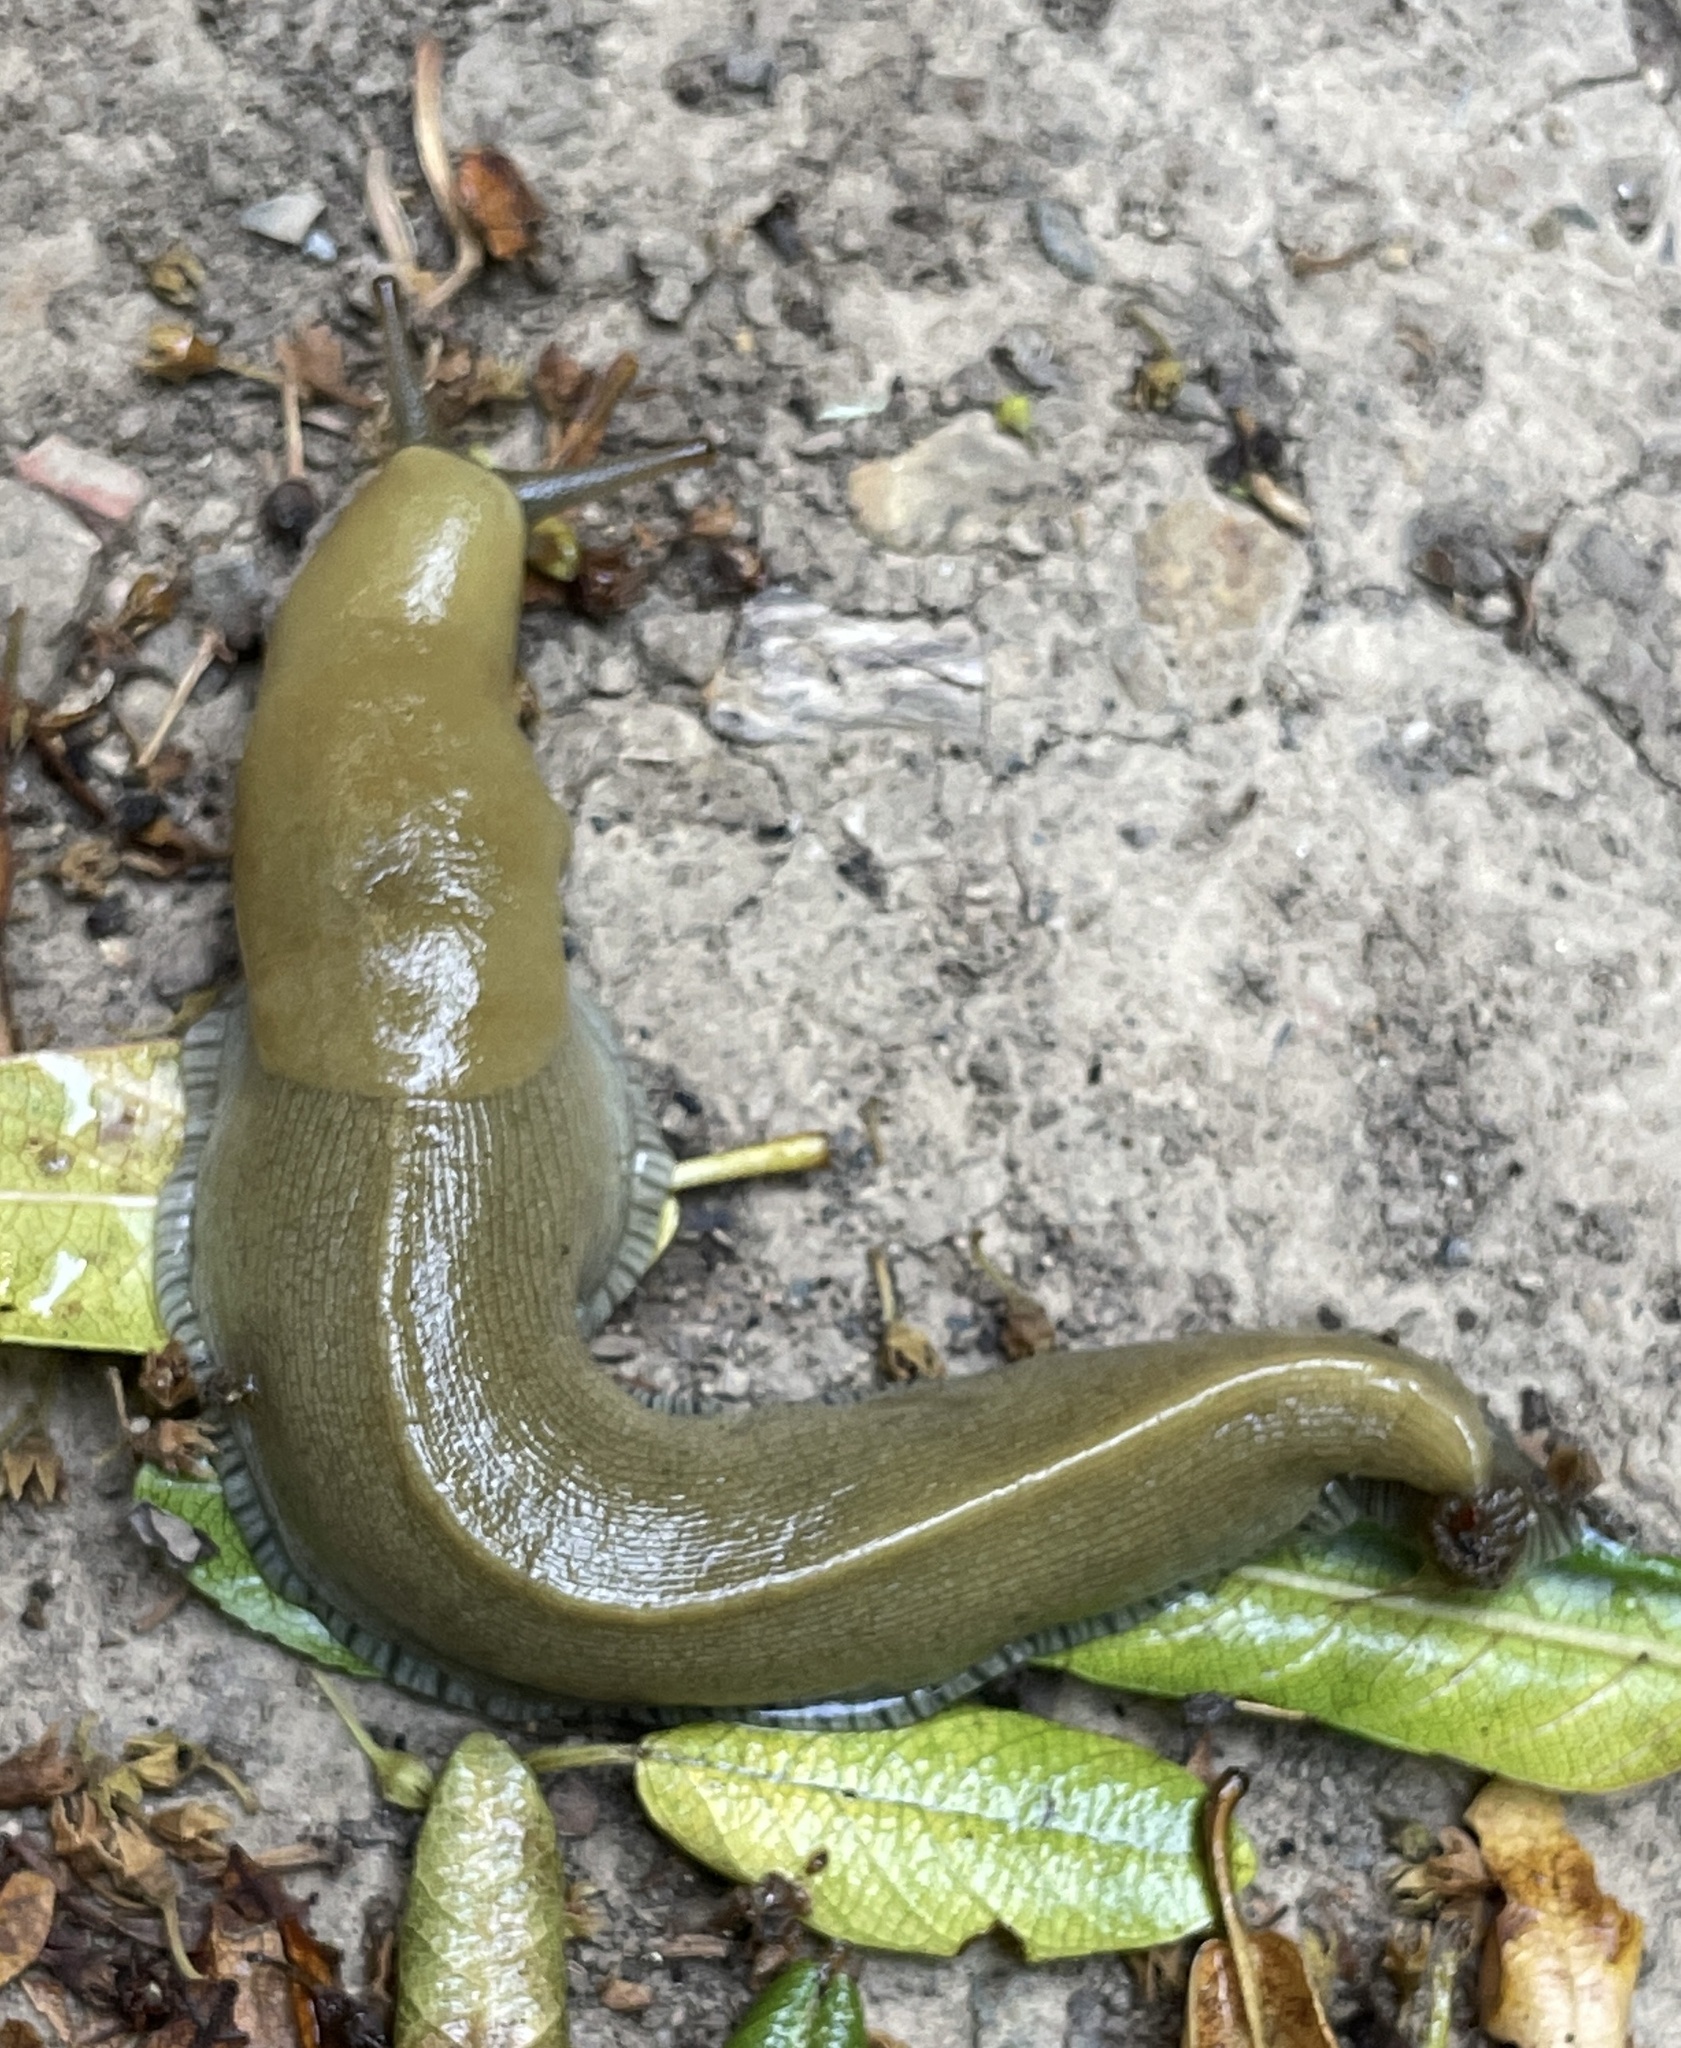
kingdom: Animalia
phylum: Mollusca
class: Gastropoda
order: Stylommatophora
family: Ariolimacidae
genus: Ariolimax
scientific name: Ariolimax buttoni
